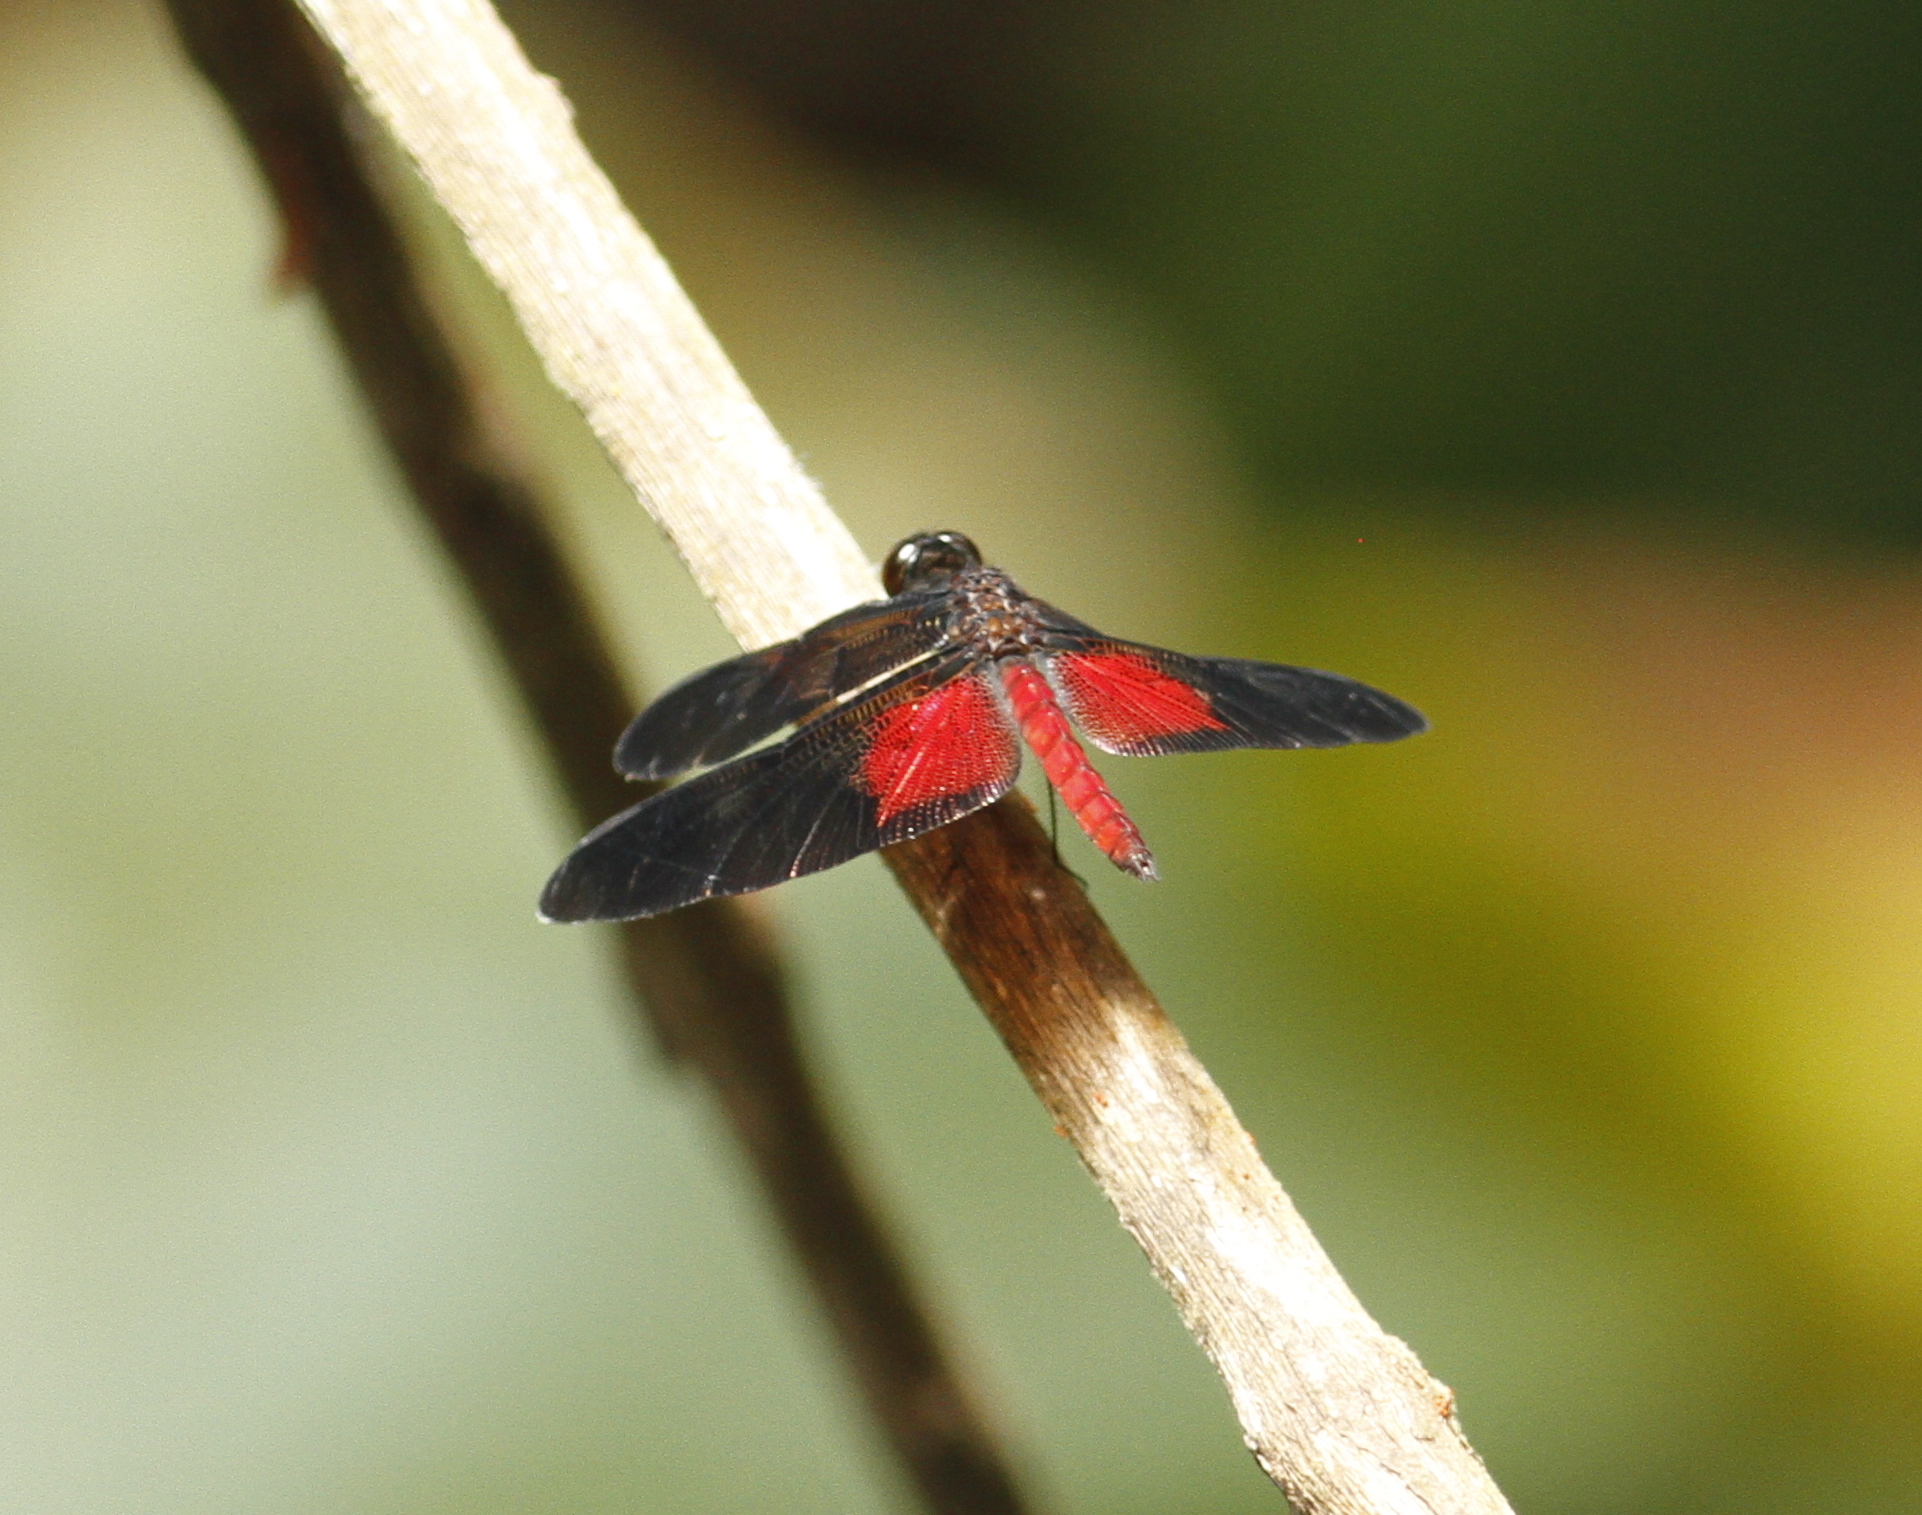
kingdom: Animalia
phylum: Arthropoda
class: Insecta
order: Odonata
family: Libellulidae
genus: Diastatops
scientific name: Diastatops pullata
